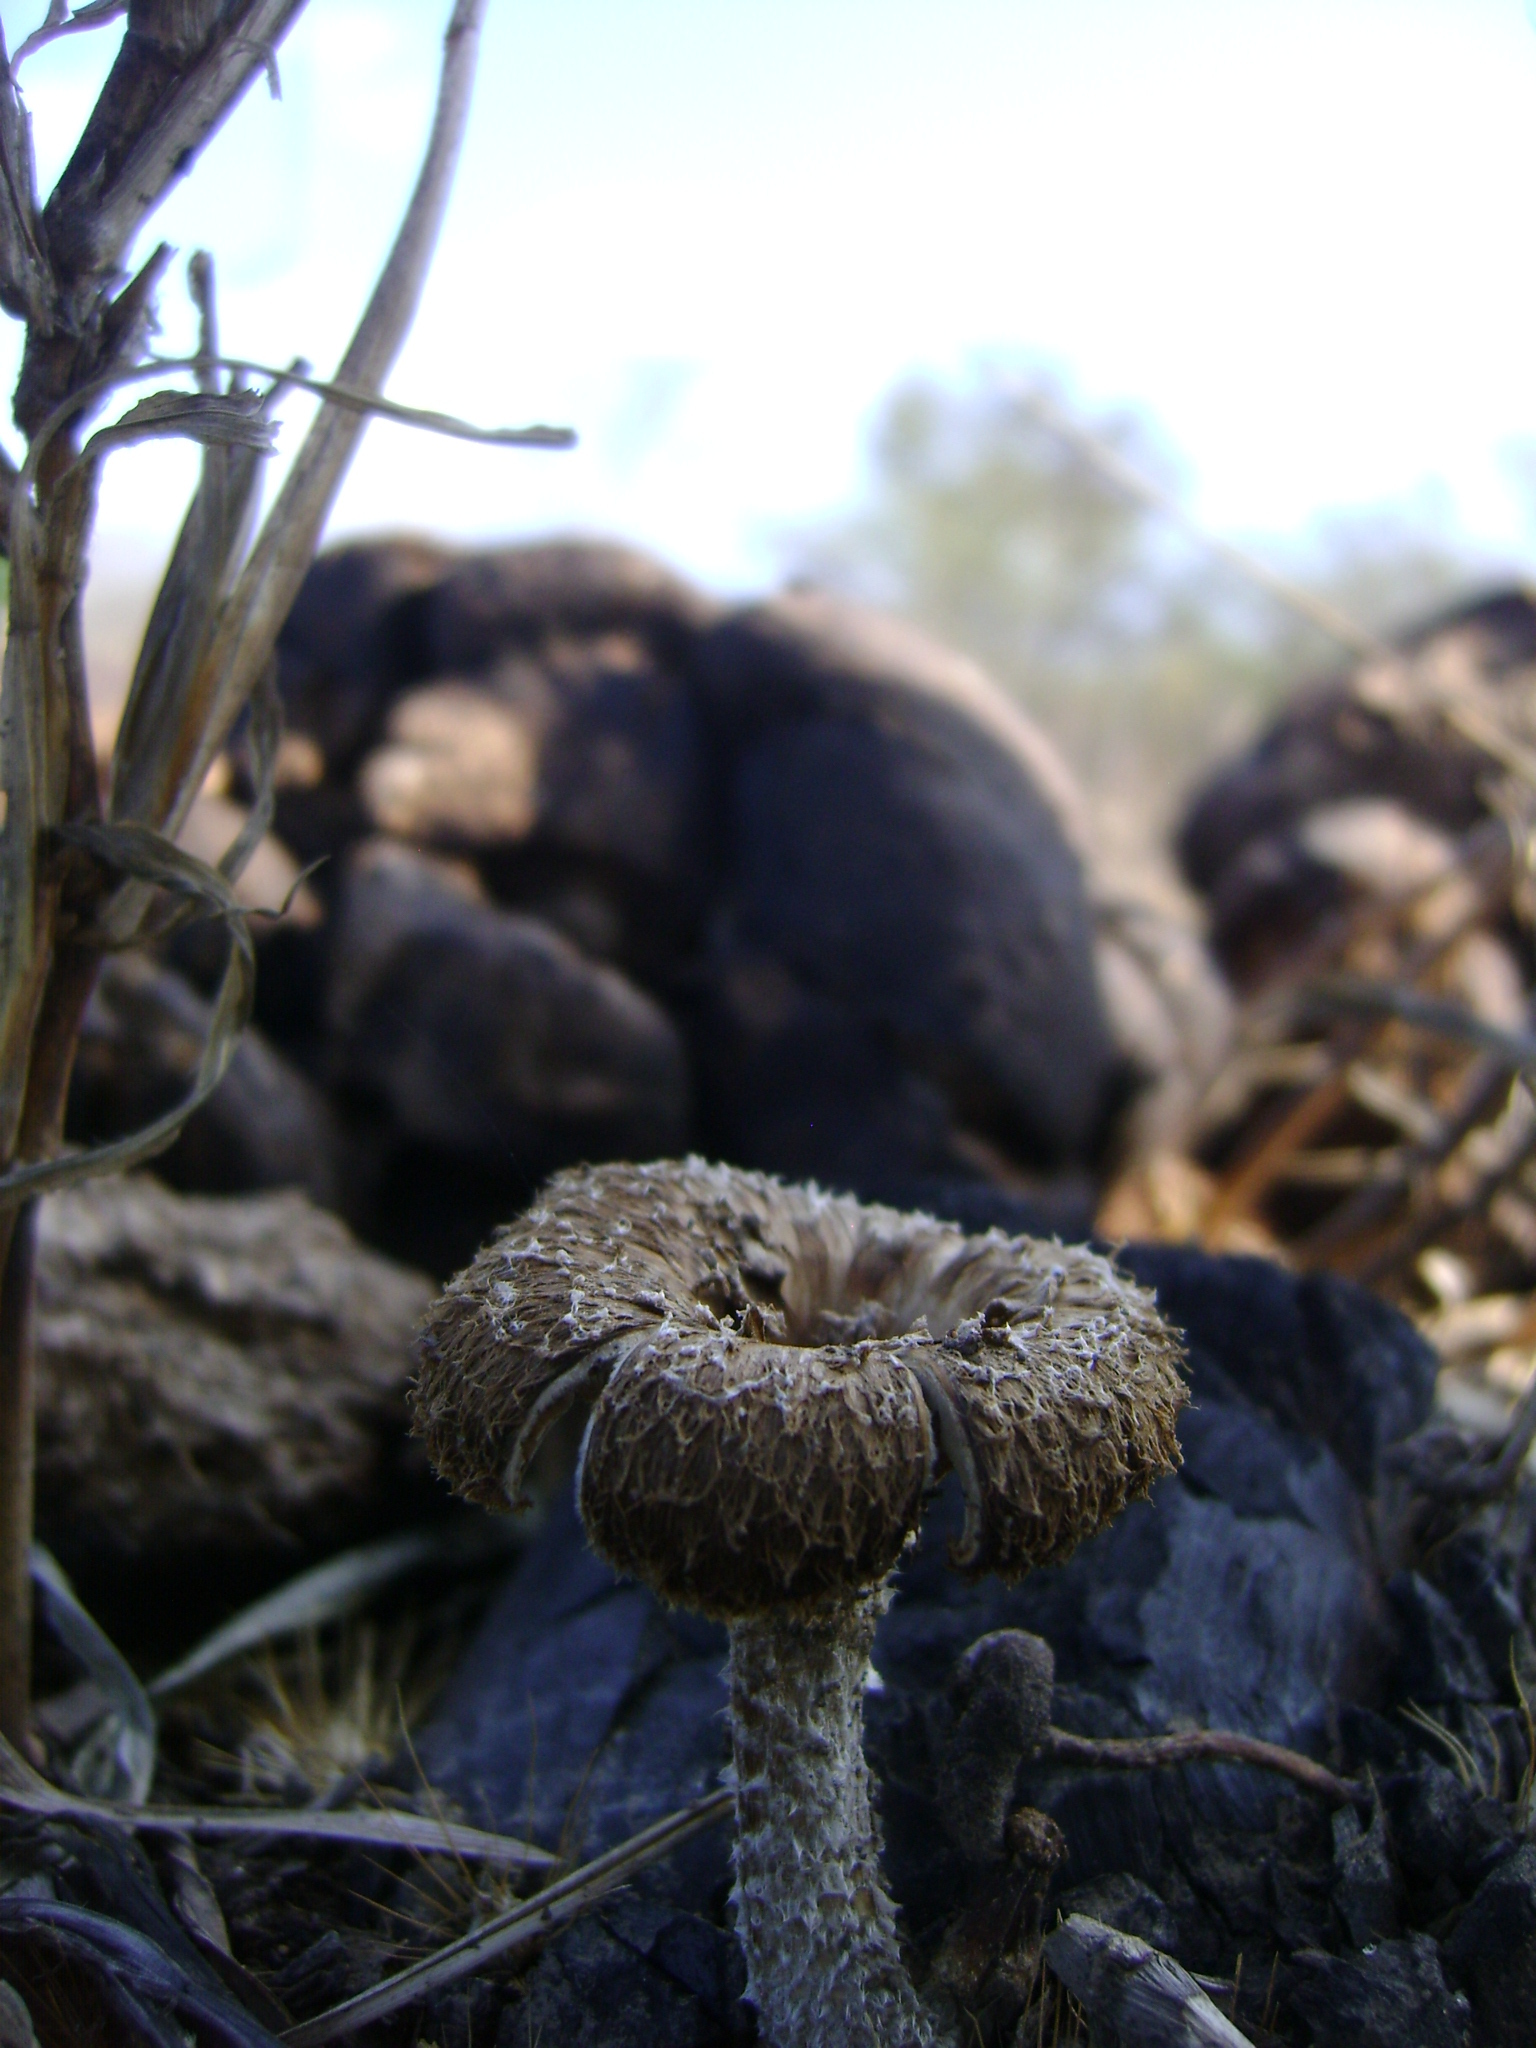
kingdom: Fungi
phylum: Basidiomycota
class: Agaricomycetes
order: Polyporales
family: Polyporaceae
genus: Lentinus
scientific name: Lentinus crinitus
